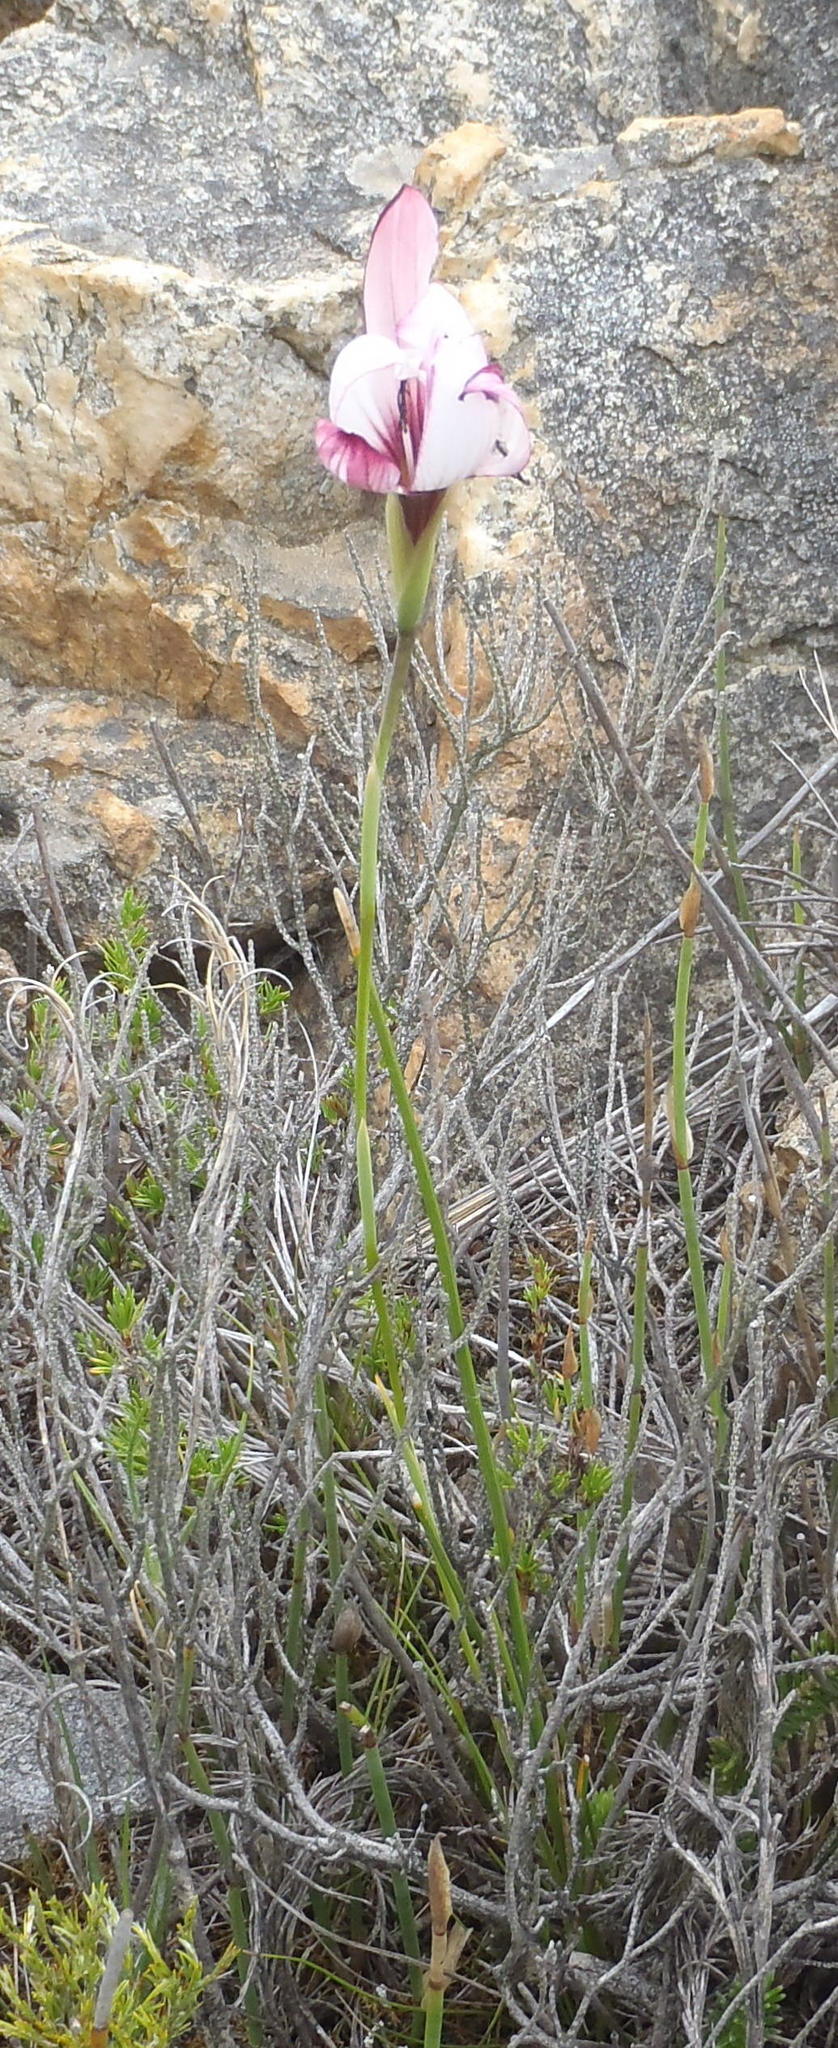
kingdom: Plantae
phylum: Tracheophyta
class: Liliopsida
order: Asparagales
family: Iridaceae
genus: Geissorhiza
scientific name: Geissorhiza fourcadei
